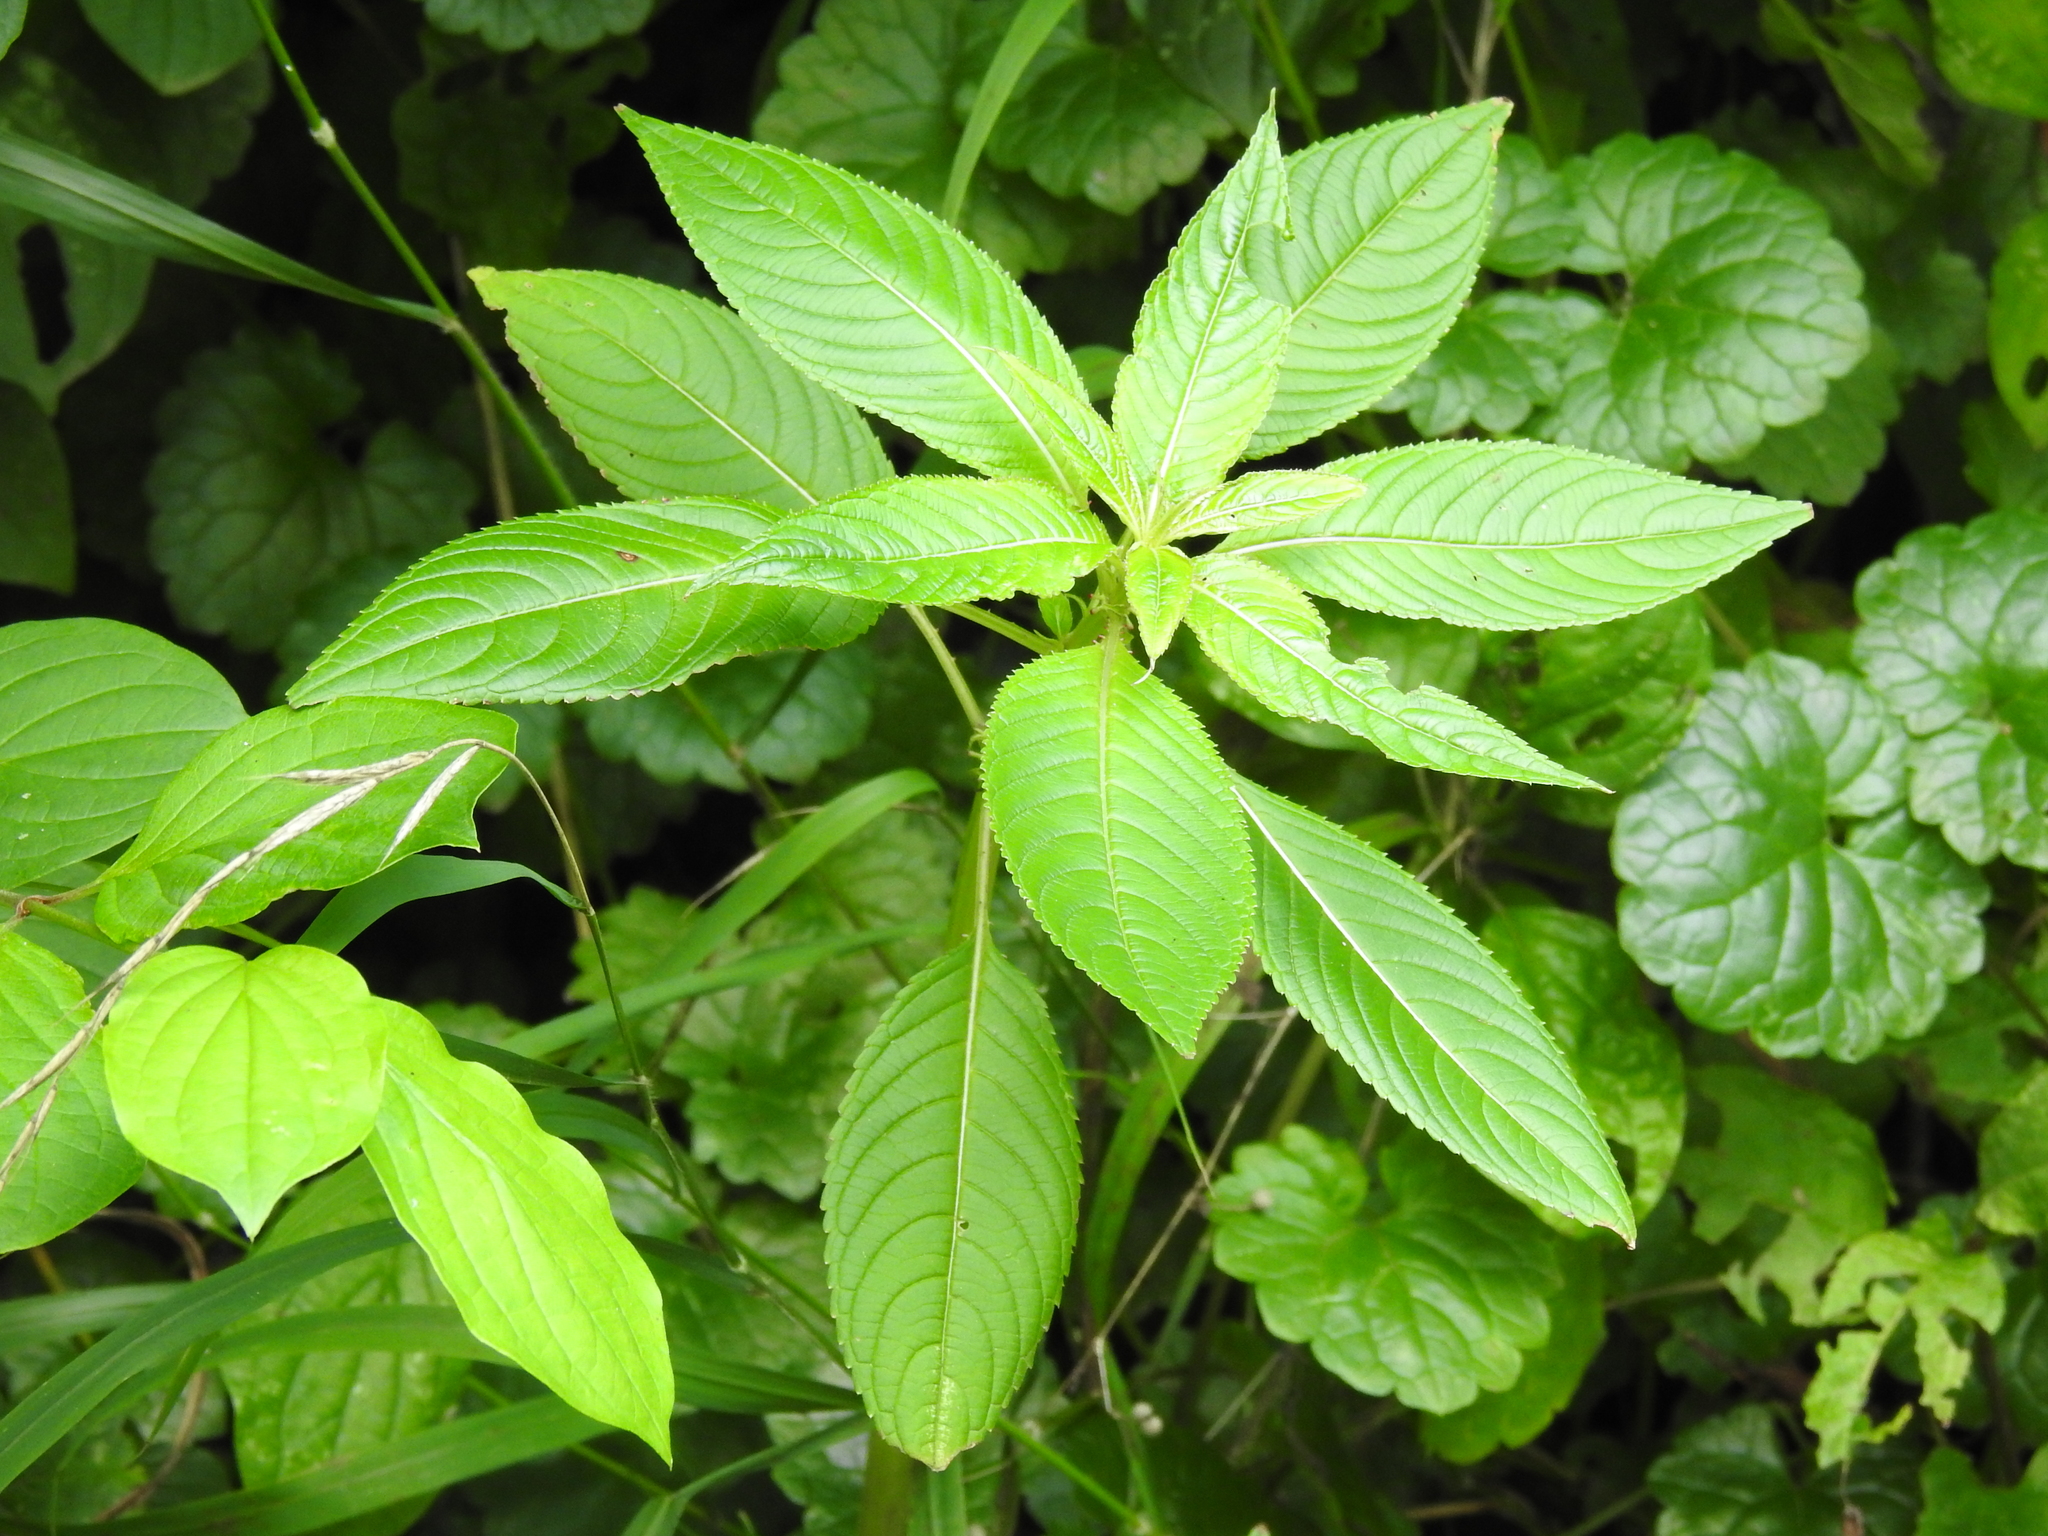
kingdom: Plantae
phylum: Tracheophyta
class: Magnoliopsida
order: Ericales
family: Balsaminaceae
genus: Impatiens
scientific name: Impatiens glandulifera
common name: Himalayan balsam
